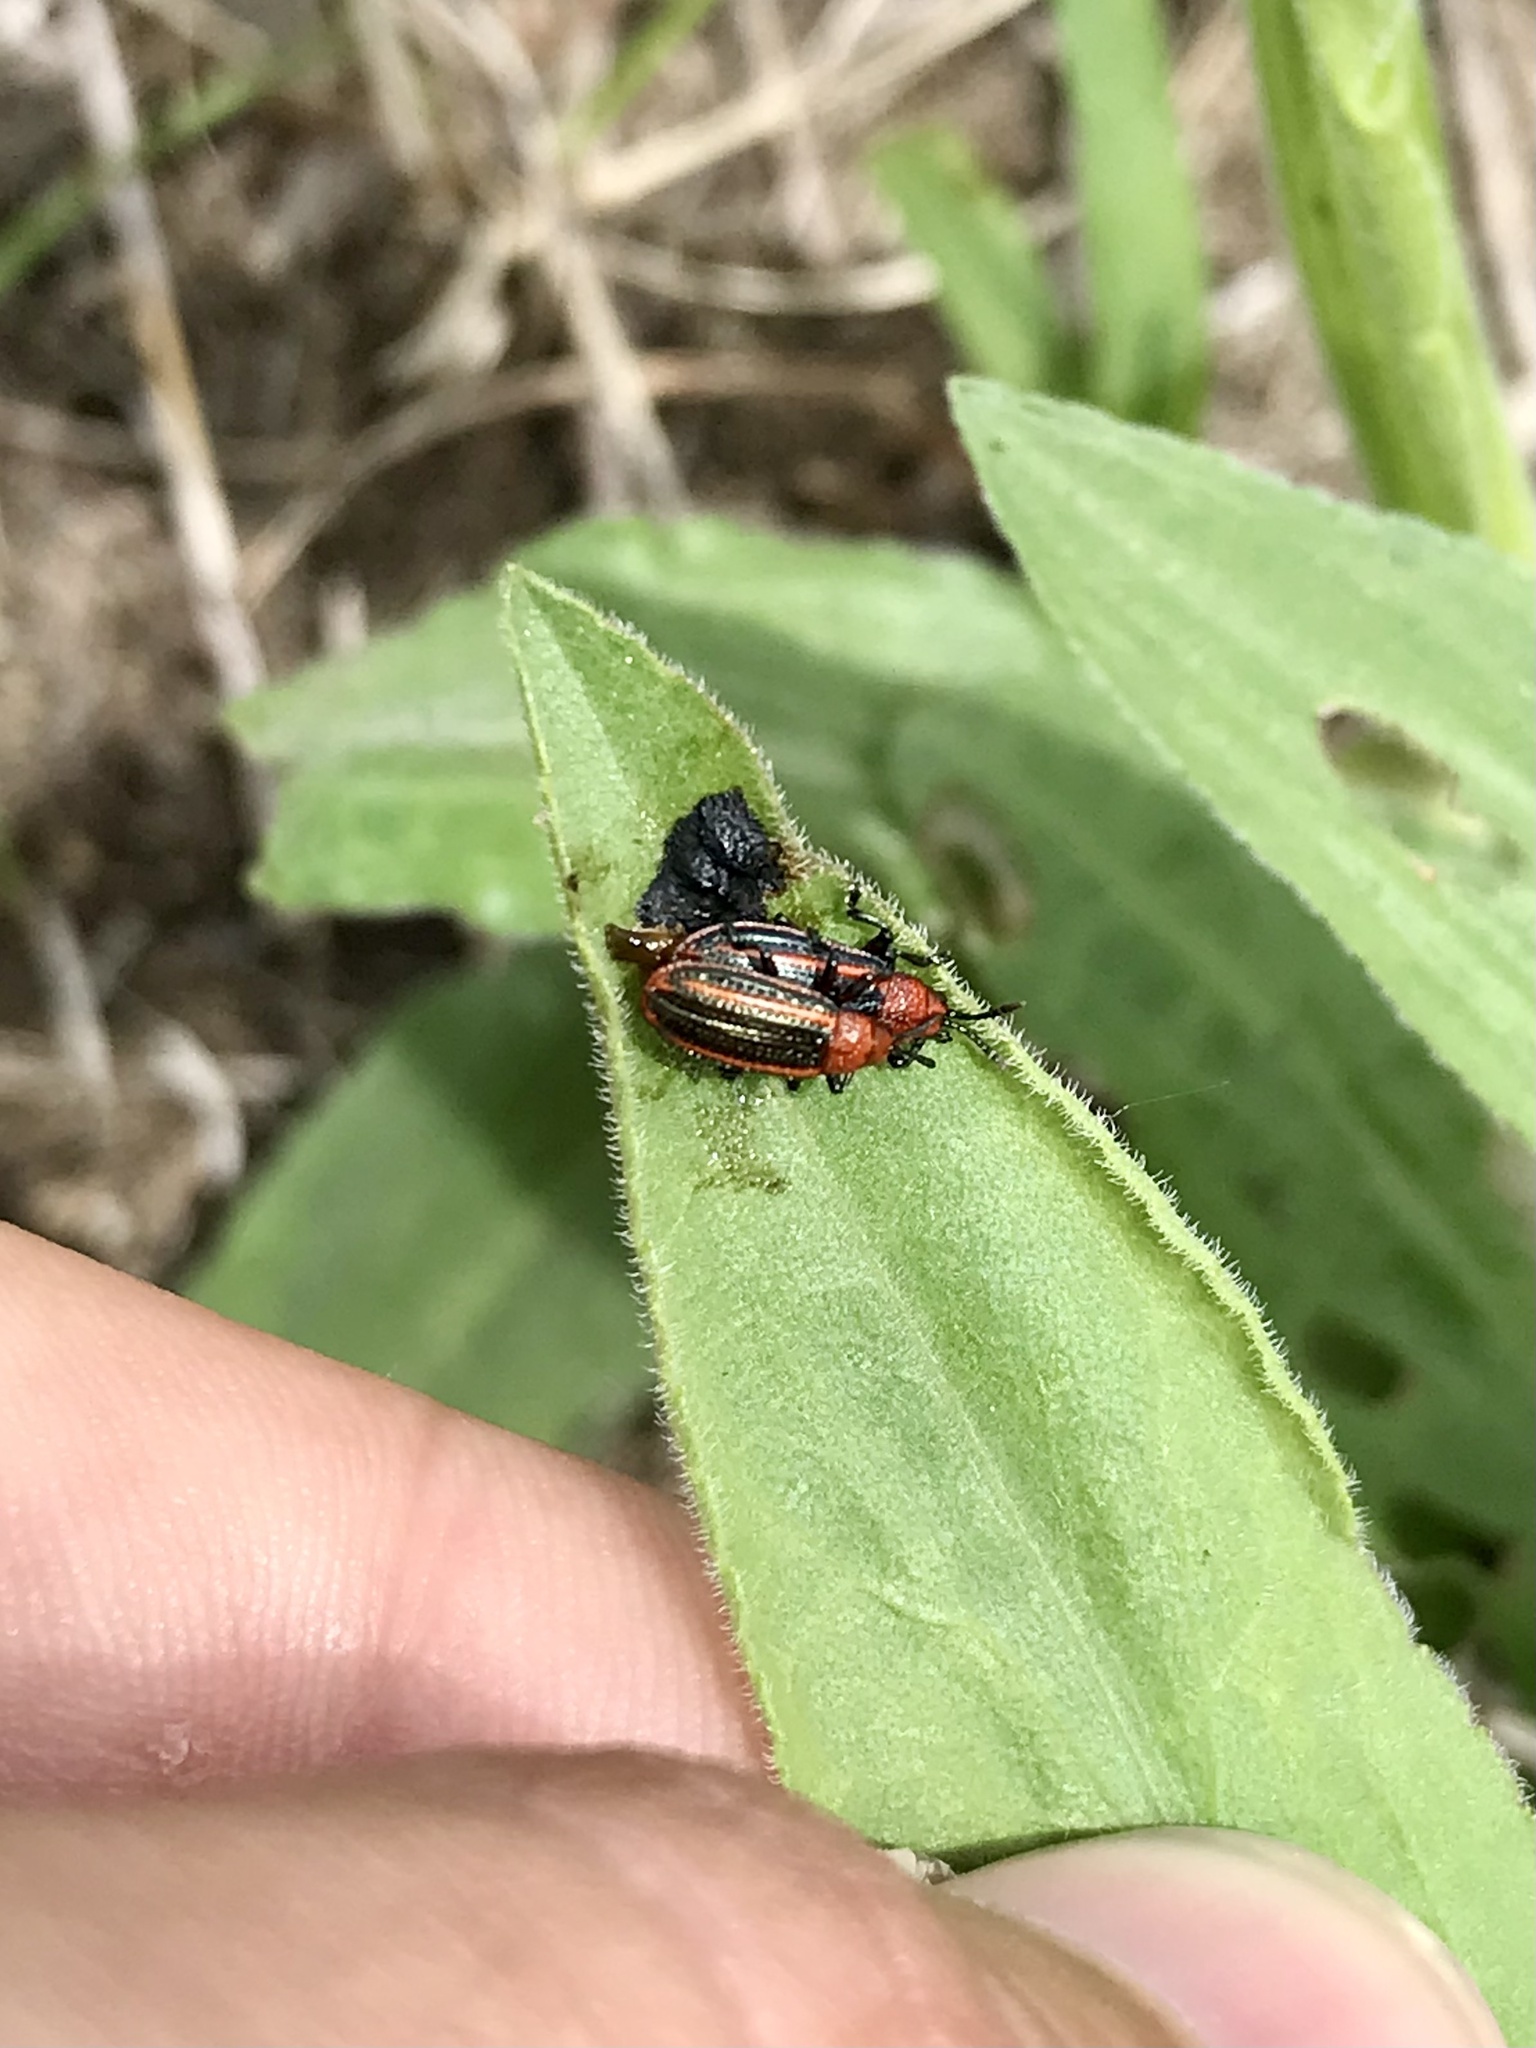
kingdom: Animalia
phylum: Arthropoda
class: Insecta
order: Coleoptera
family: Chrysomelidae
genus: Microrhopala
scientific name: Microrhopala vittata
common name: Goldenrod leaf miner beetle
